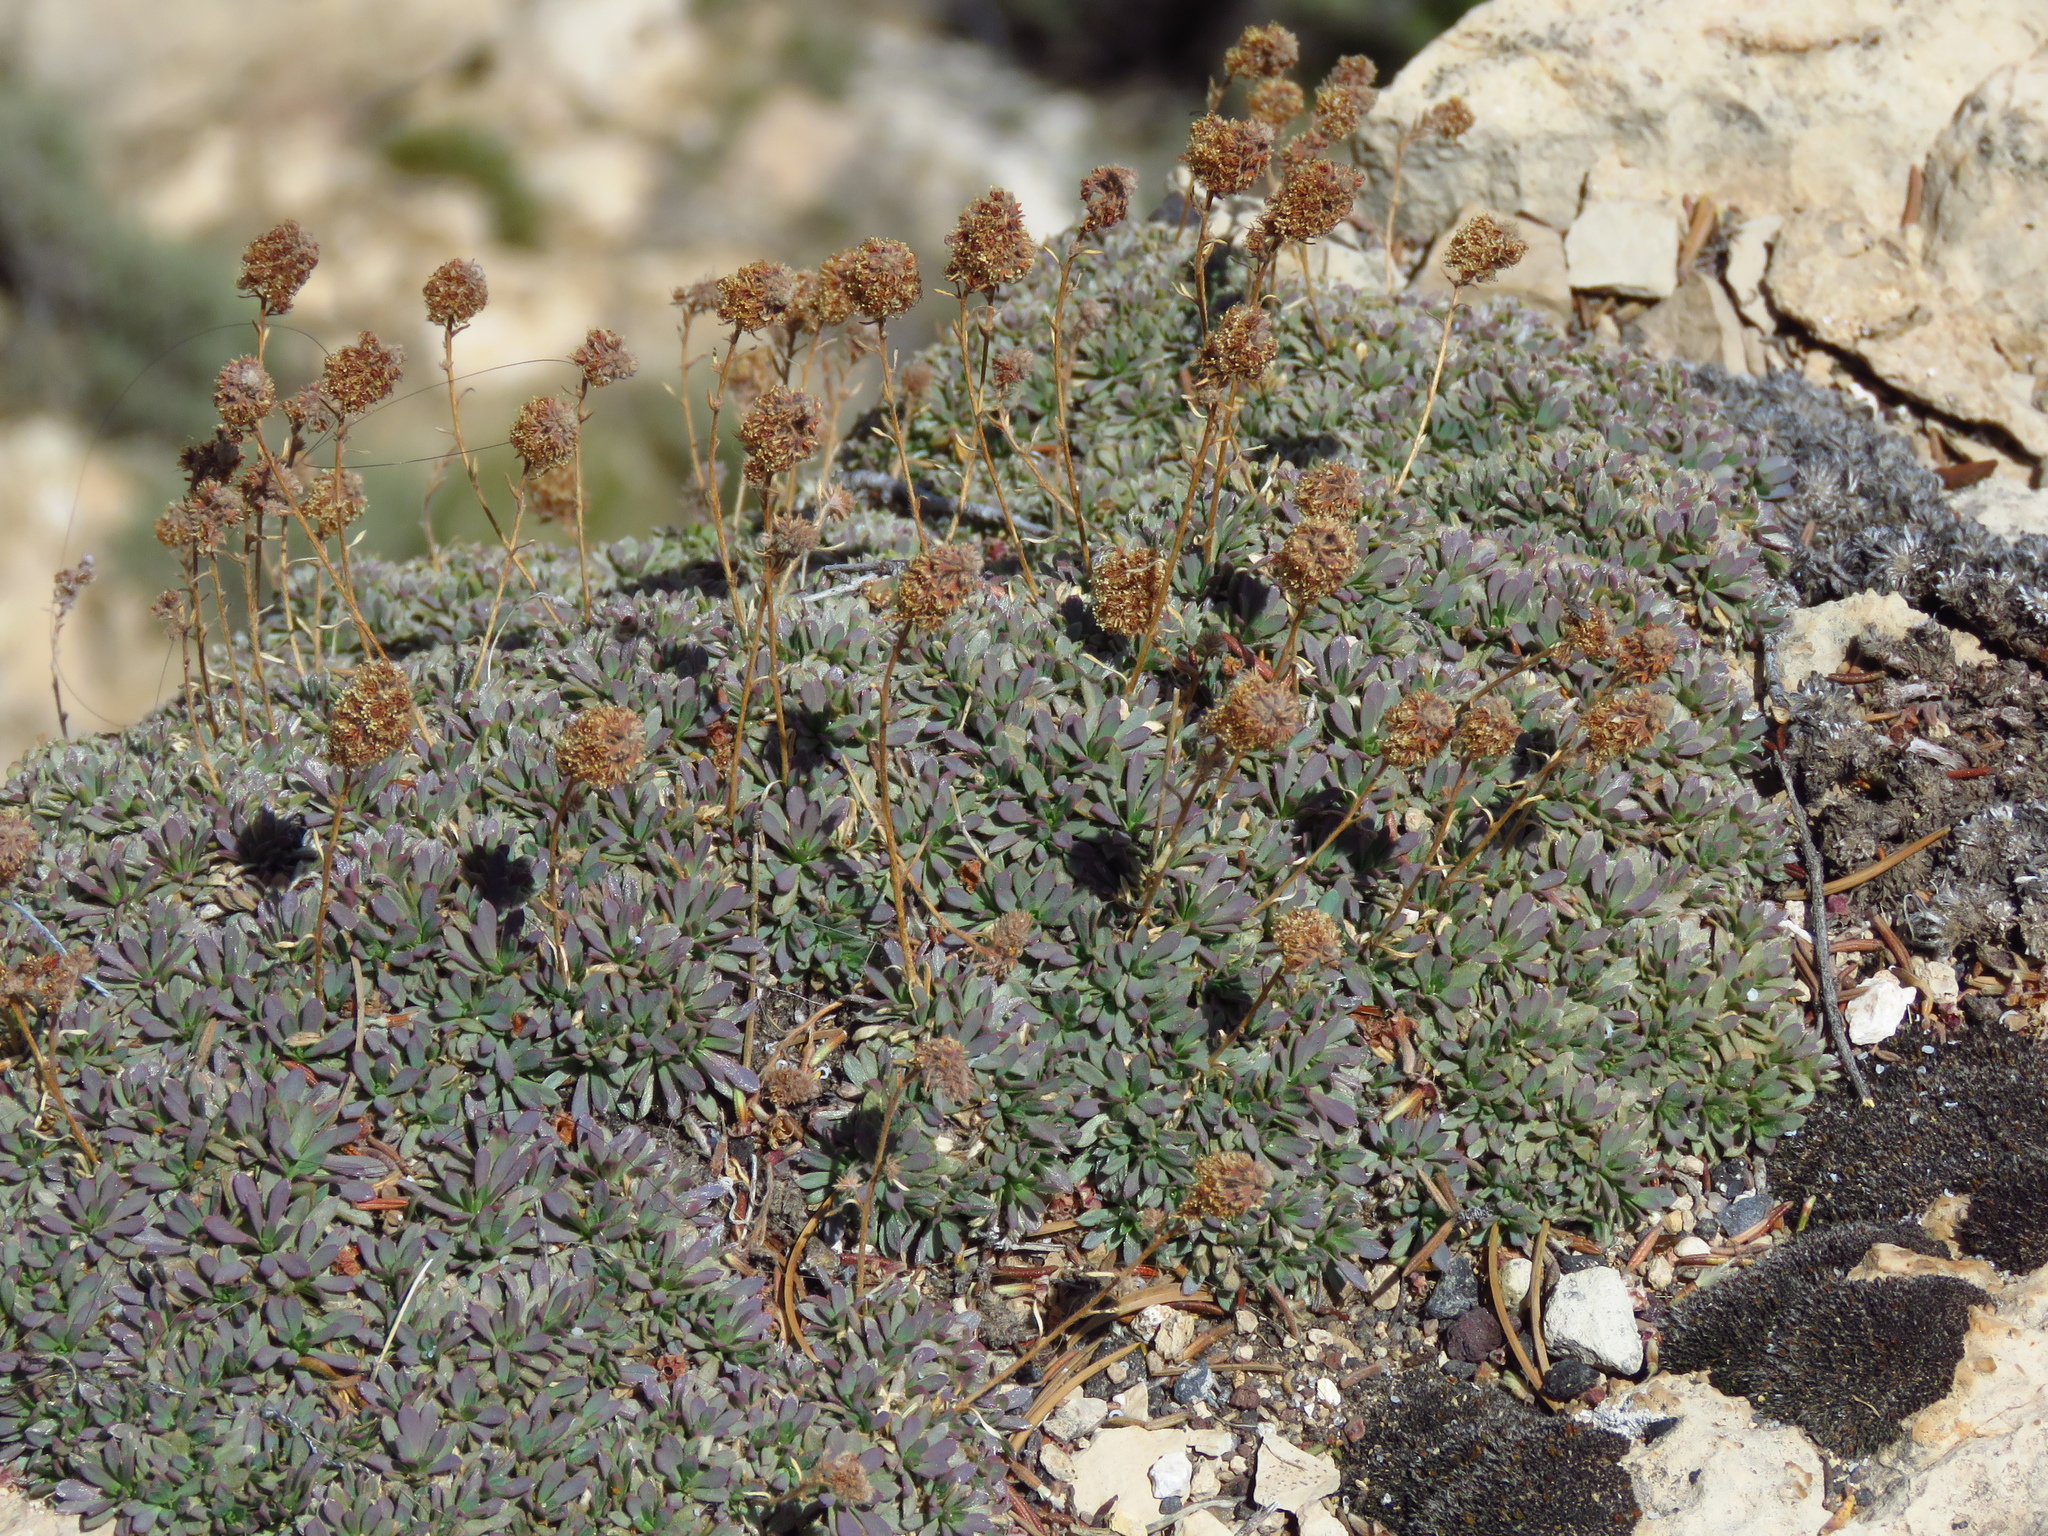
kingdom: Plantae
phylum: Tracheophyta
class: Magnoliopsida
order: Rosales
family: Rosaceae
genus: Petrophytum
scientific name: Petrophytum caespitosum
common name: Mat rockspirea
